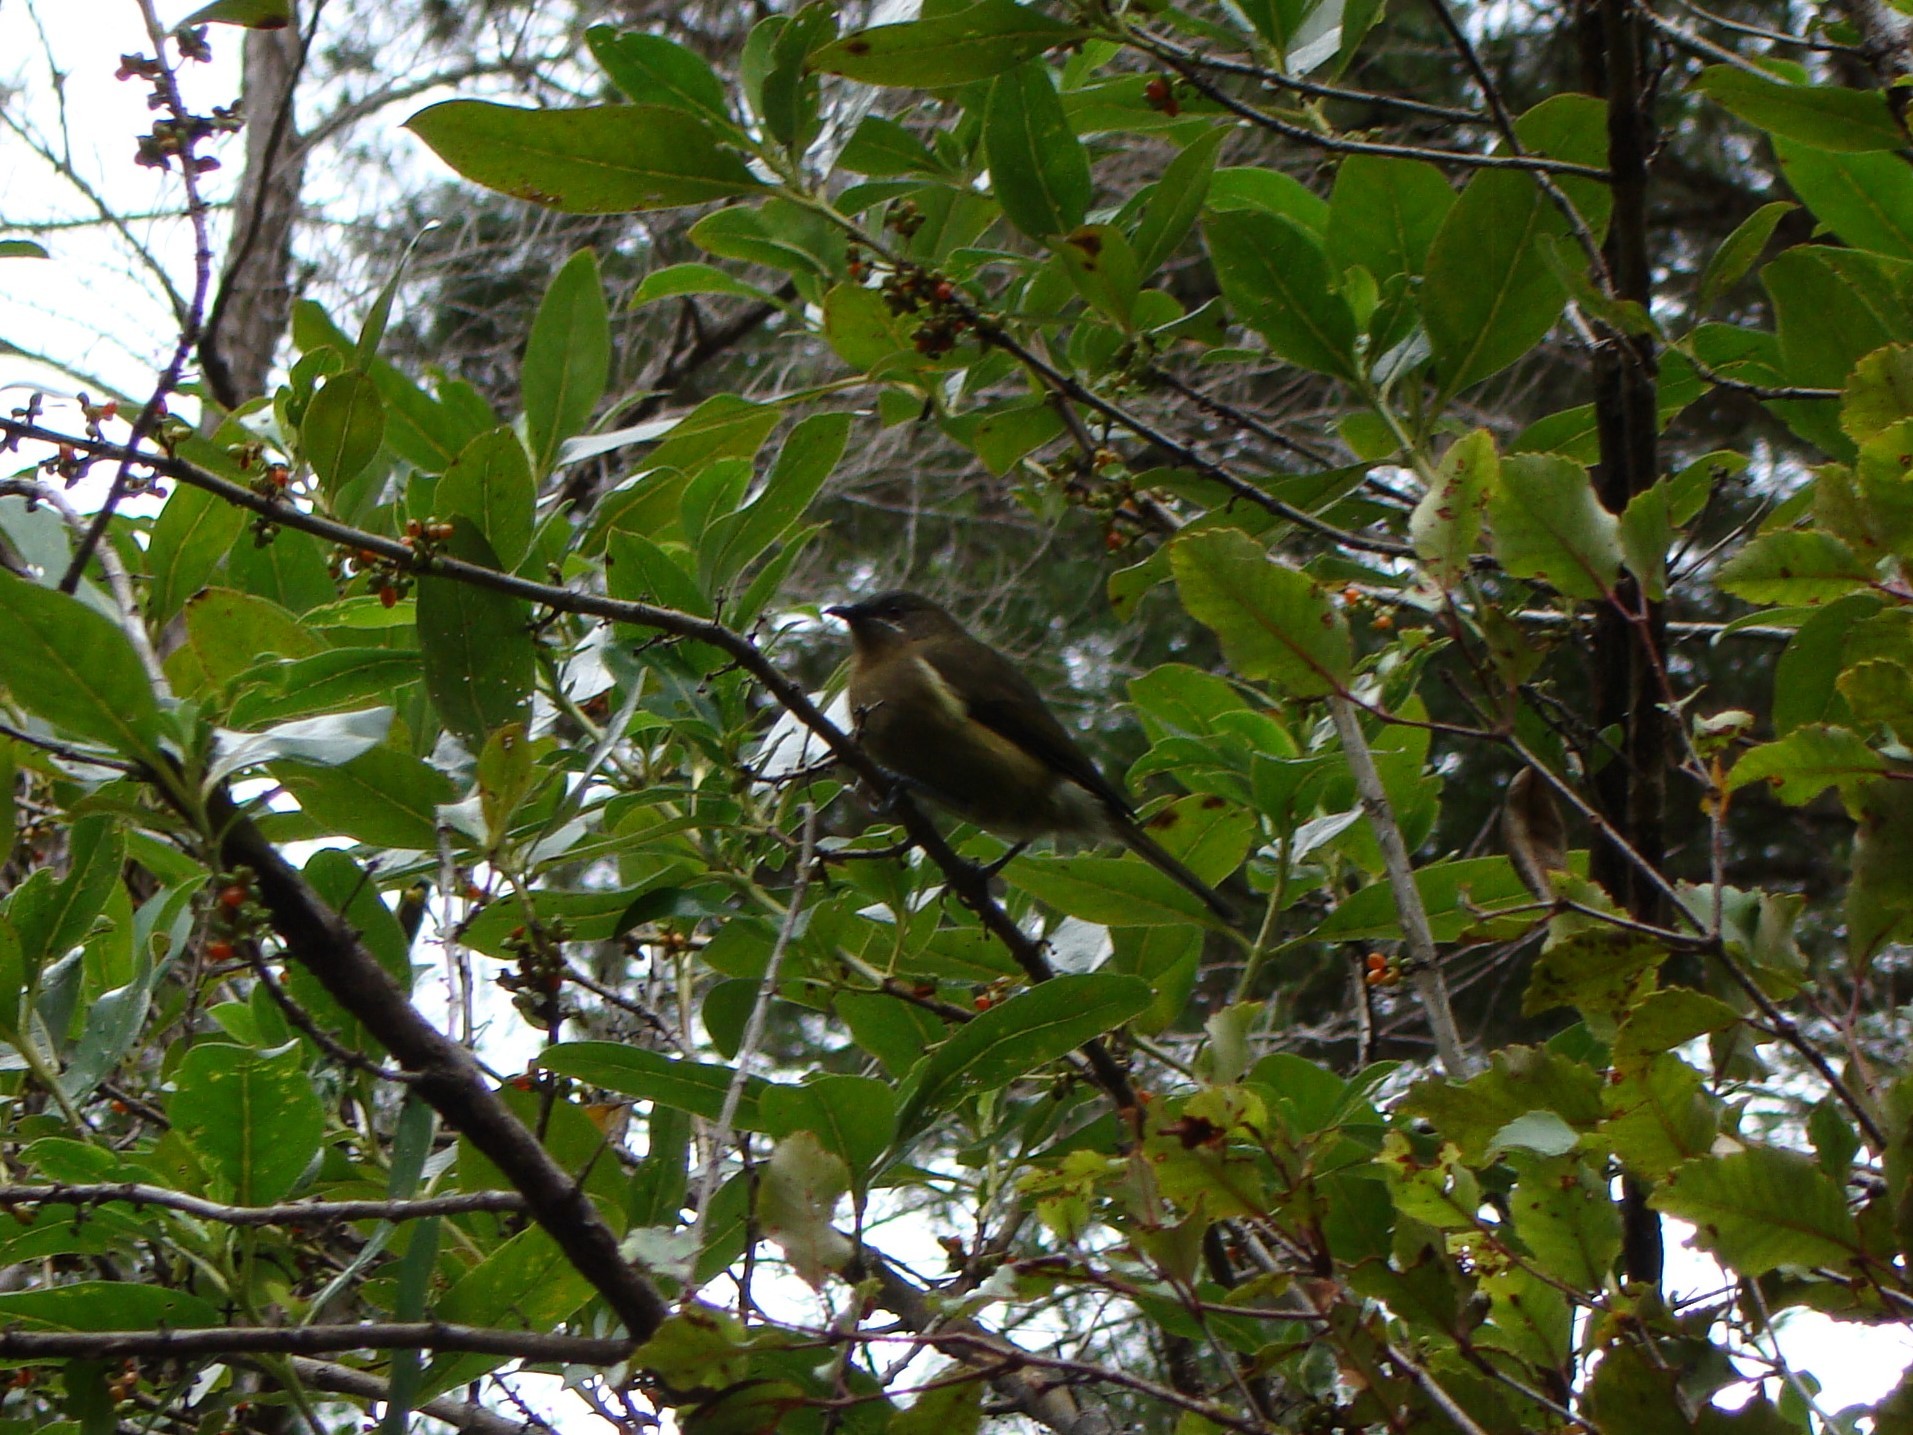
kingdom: Animalia
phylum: Chordata
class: Aves
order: Passeriformes
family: Meliphagidae
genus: Anthornis
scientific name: Anthornis melanura
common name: New zealand bellbird
